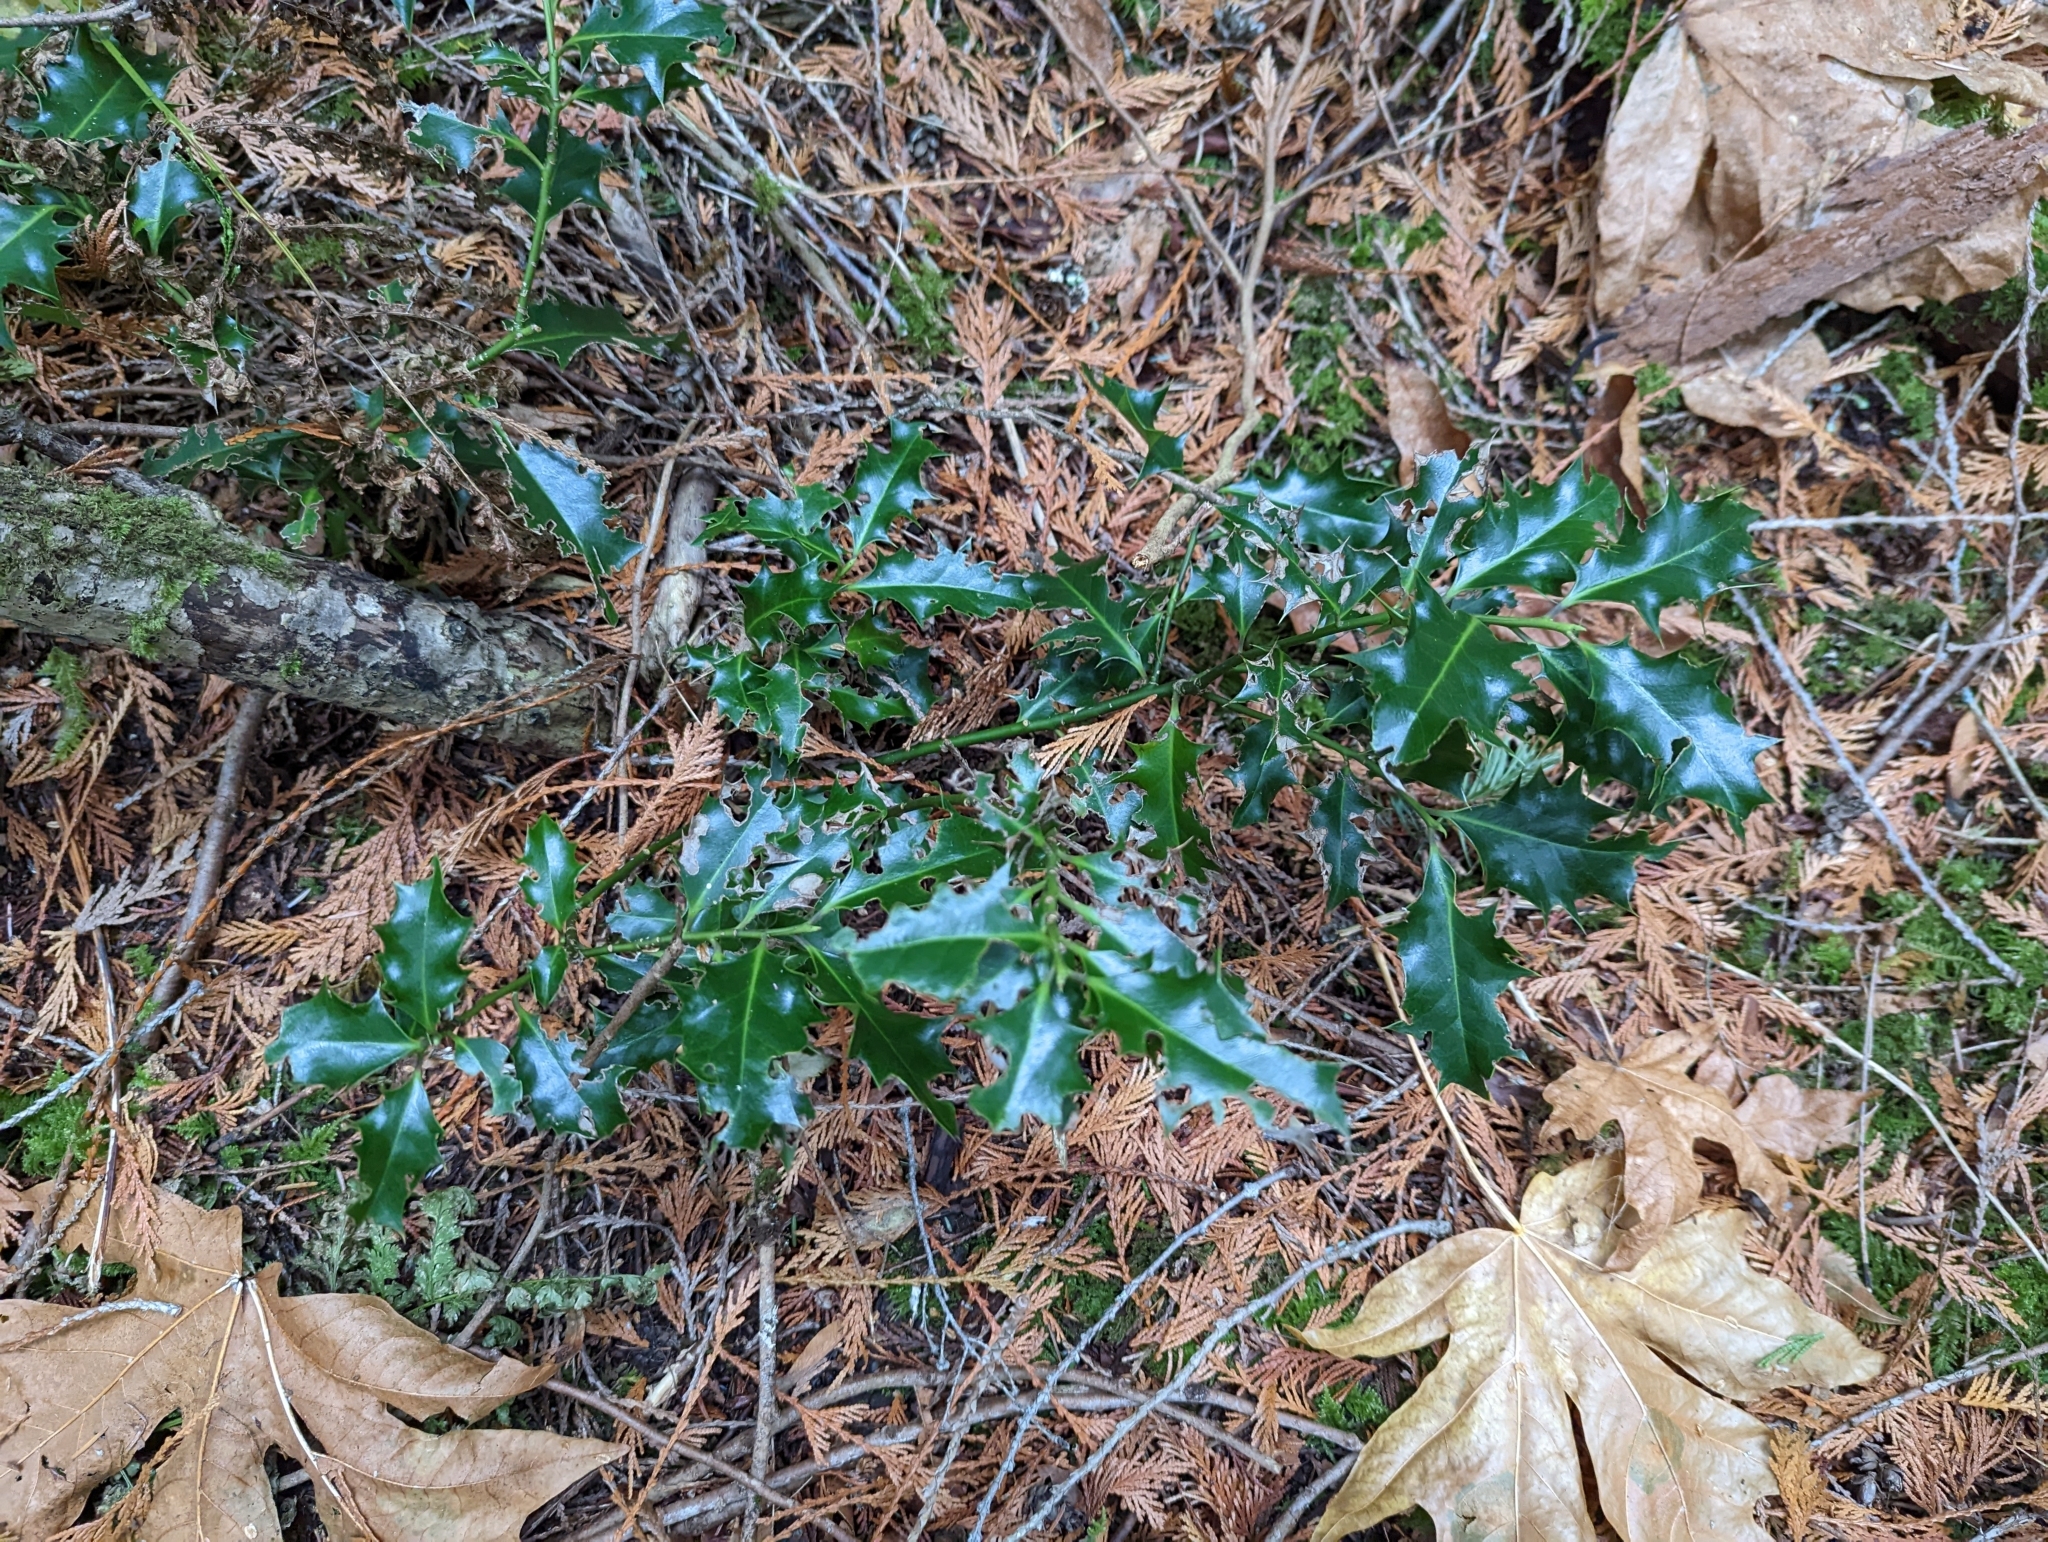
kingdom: Plantae
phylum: Tracheophyta
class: Magnoliopsida
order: Aquifoliales
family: Aquifoliaceae
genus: Ilex
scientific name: Ilex aquifolium
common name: English holly
